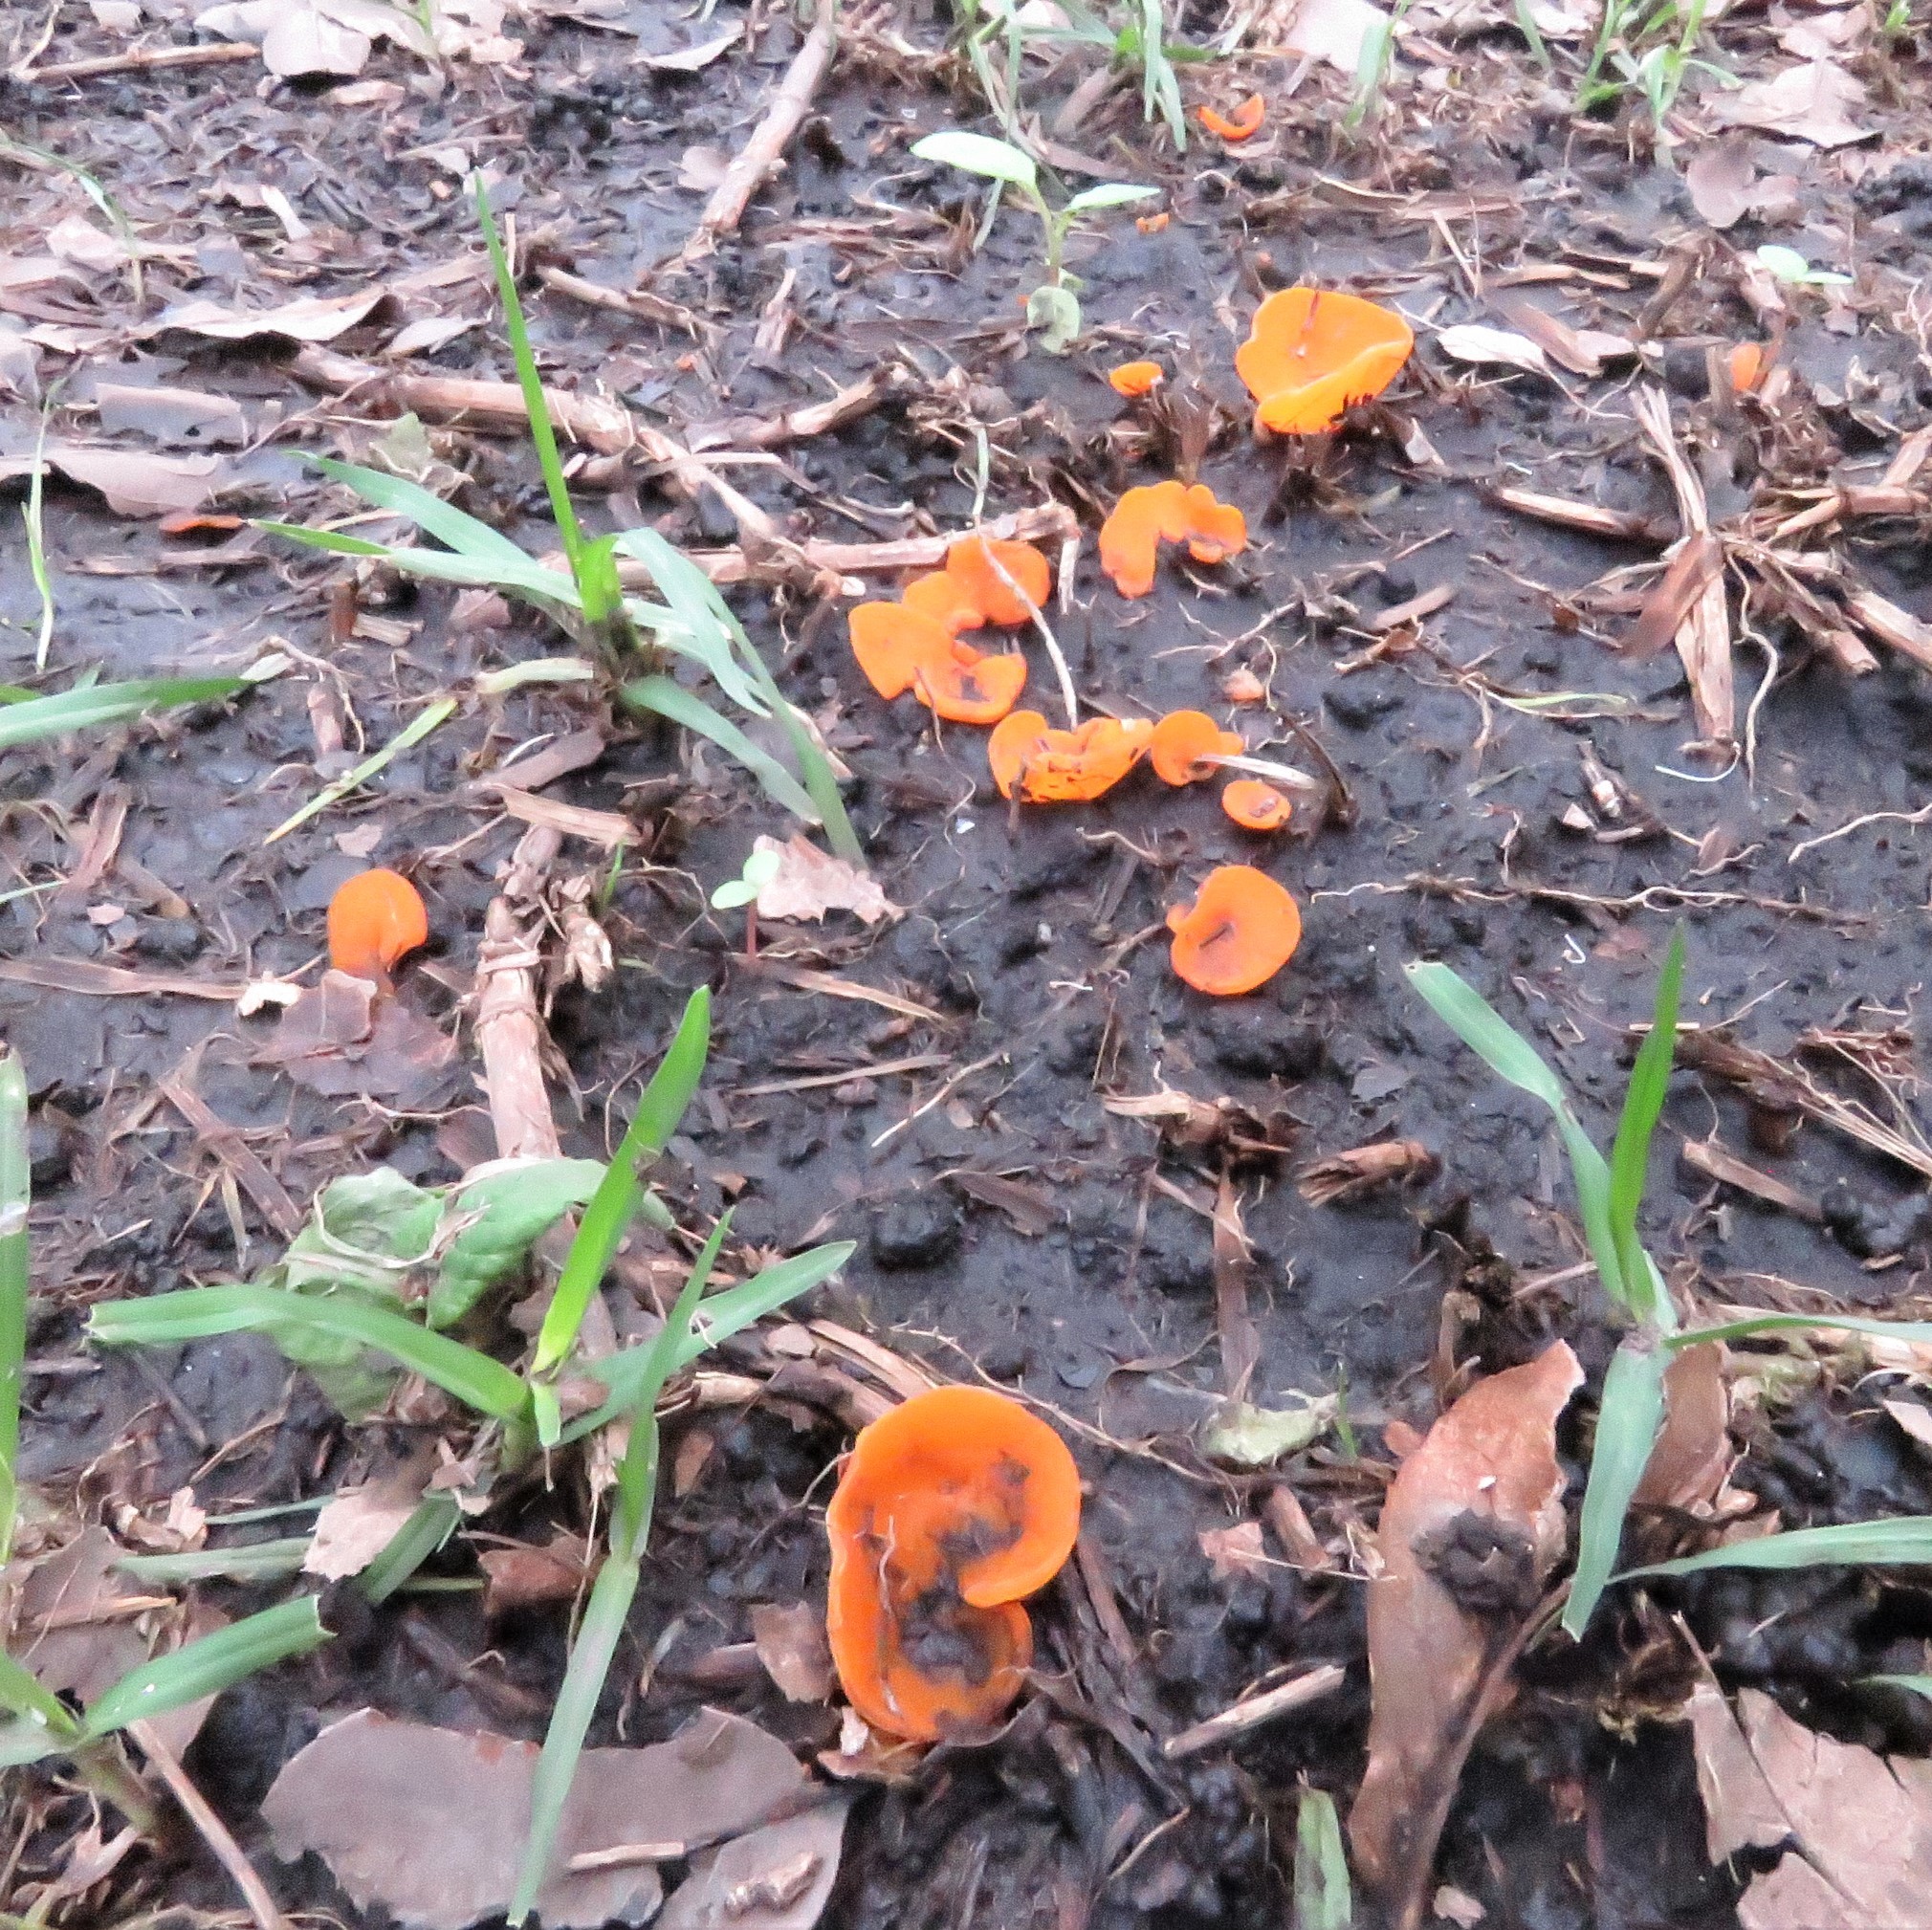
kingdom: Fungi
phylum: Ascomycota
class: Pezizomycetes
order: Pezizales
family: Pyronemataceae
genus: Aleuria
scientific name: Aleuria aurantia
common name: Orange peel fungus
